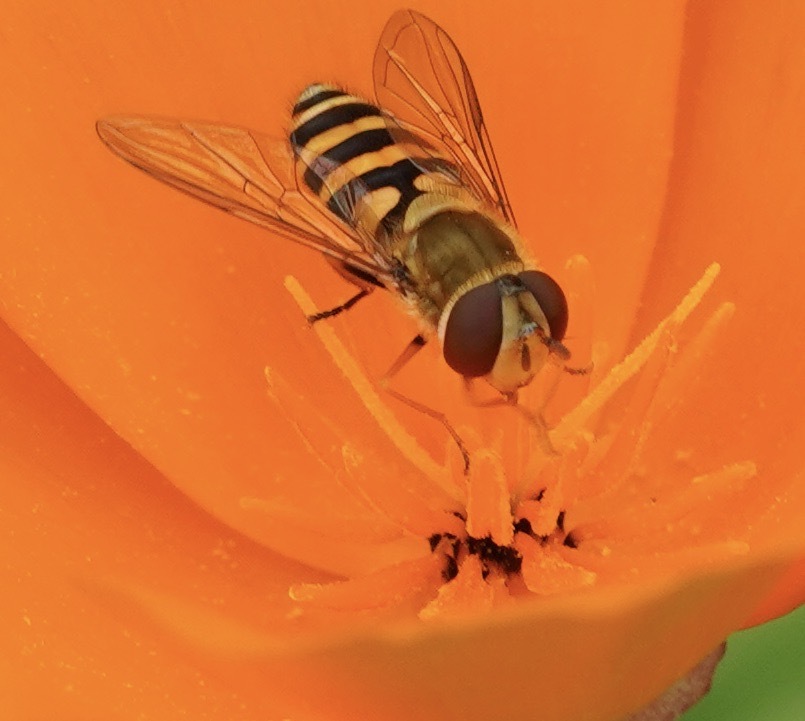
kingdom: Animalia
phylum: Arthropoda
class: Insecta
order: Diptera
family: Syrphidae
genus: Syrphus
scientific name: Syrphus
